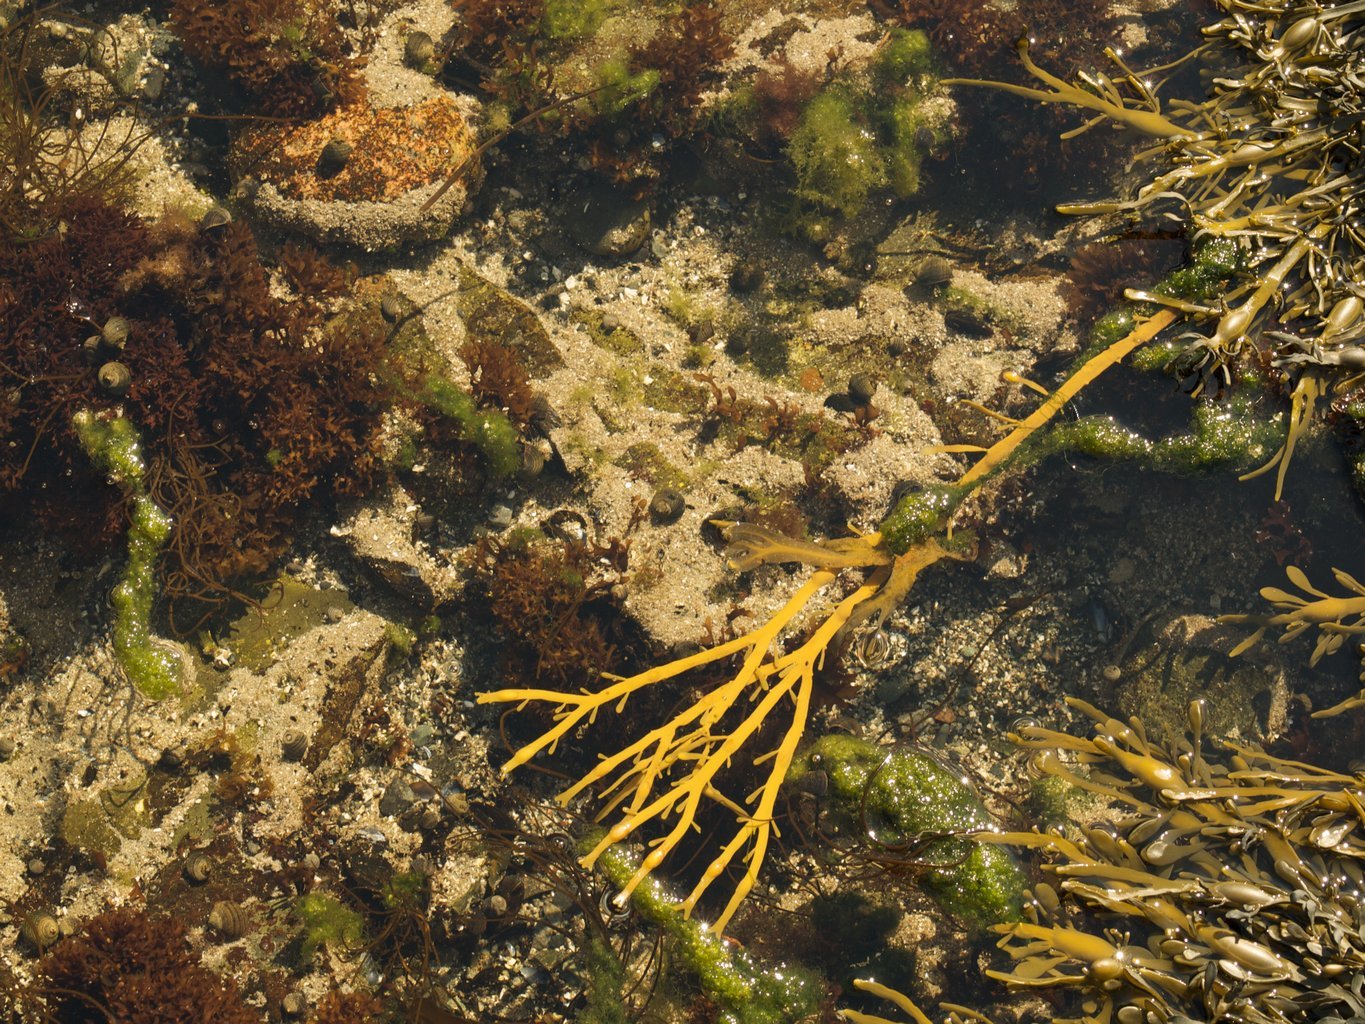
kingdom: Chromista
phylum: Ochrophyta
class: Phaeophyceae
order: Fucales
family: Fucaceae
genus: Ascophyllum
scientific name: Ascophyllum nodosum
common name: Knotted wrack
